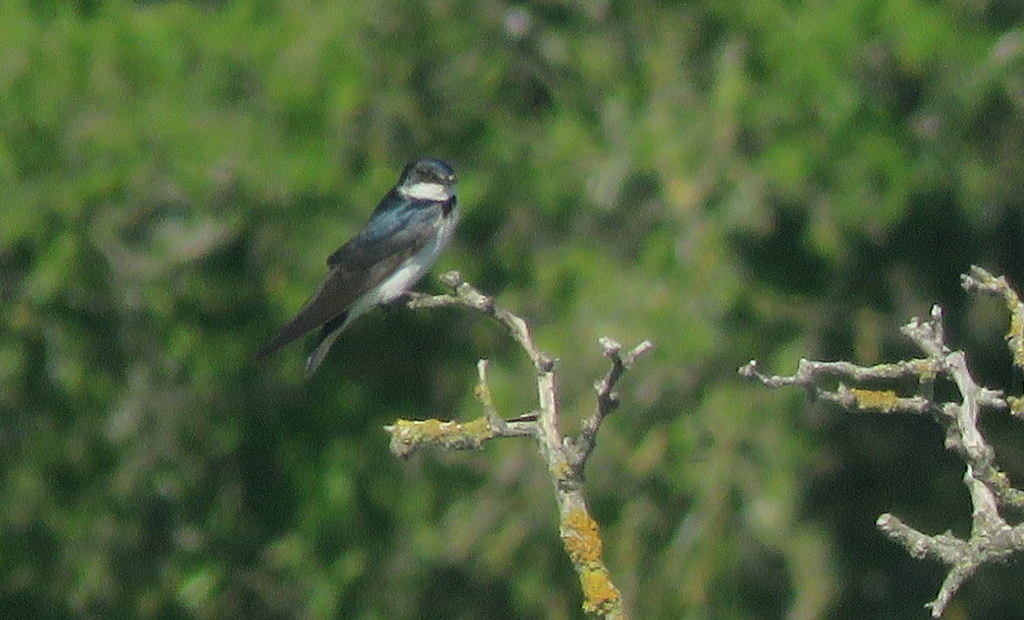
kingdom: Animalia
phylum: Chordata
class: Aves
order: Passeriformes
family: Hirundinidae
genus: Tachycineta
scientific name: Tachycineta leucorrhoa
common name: White-rumped swallow
